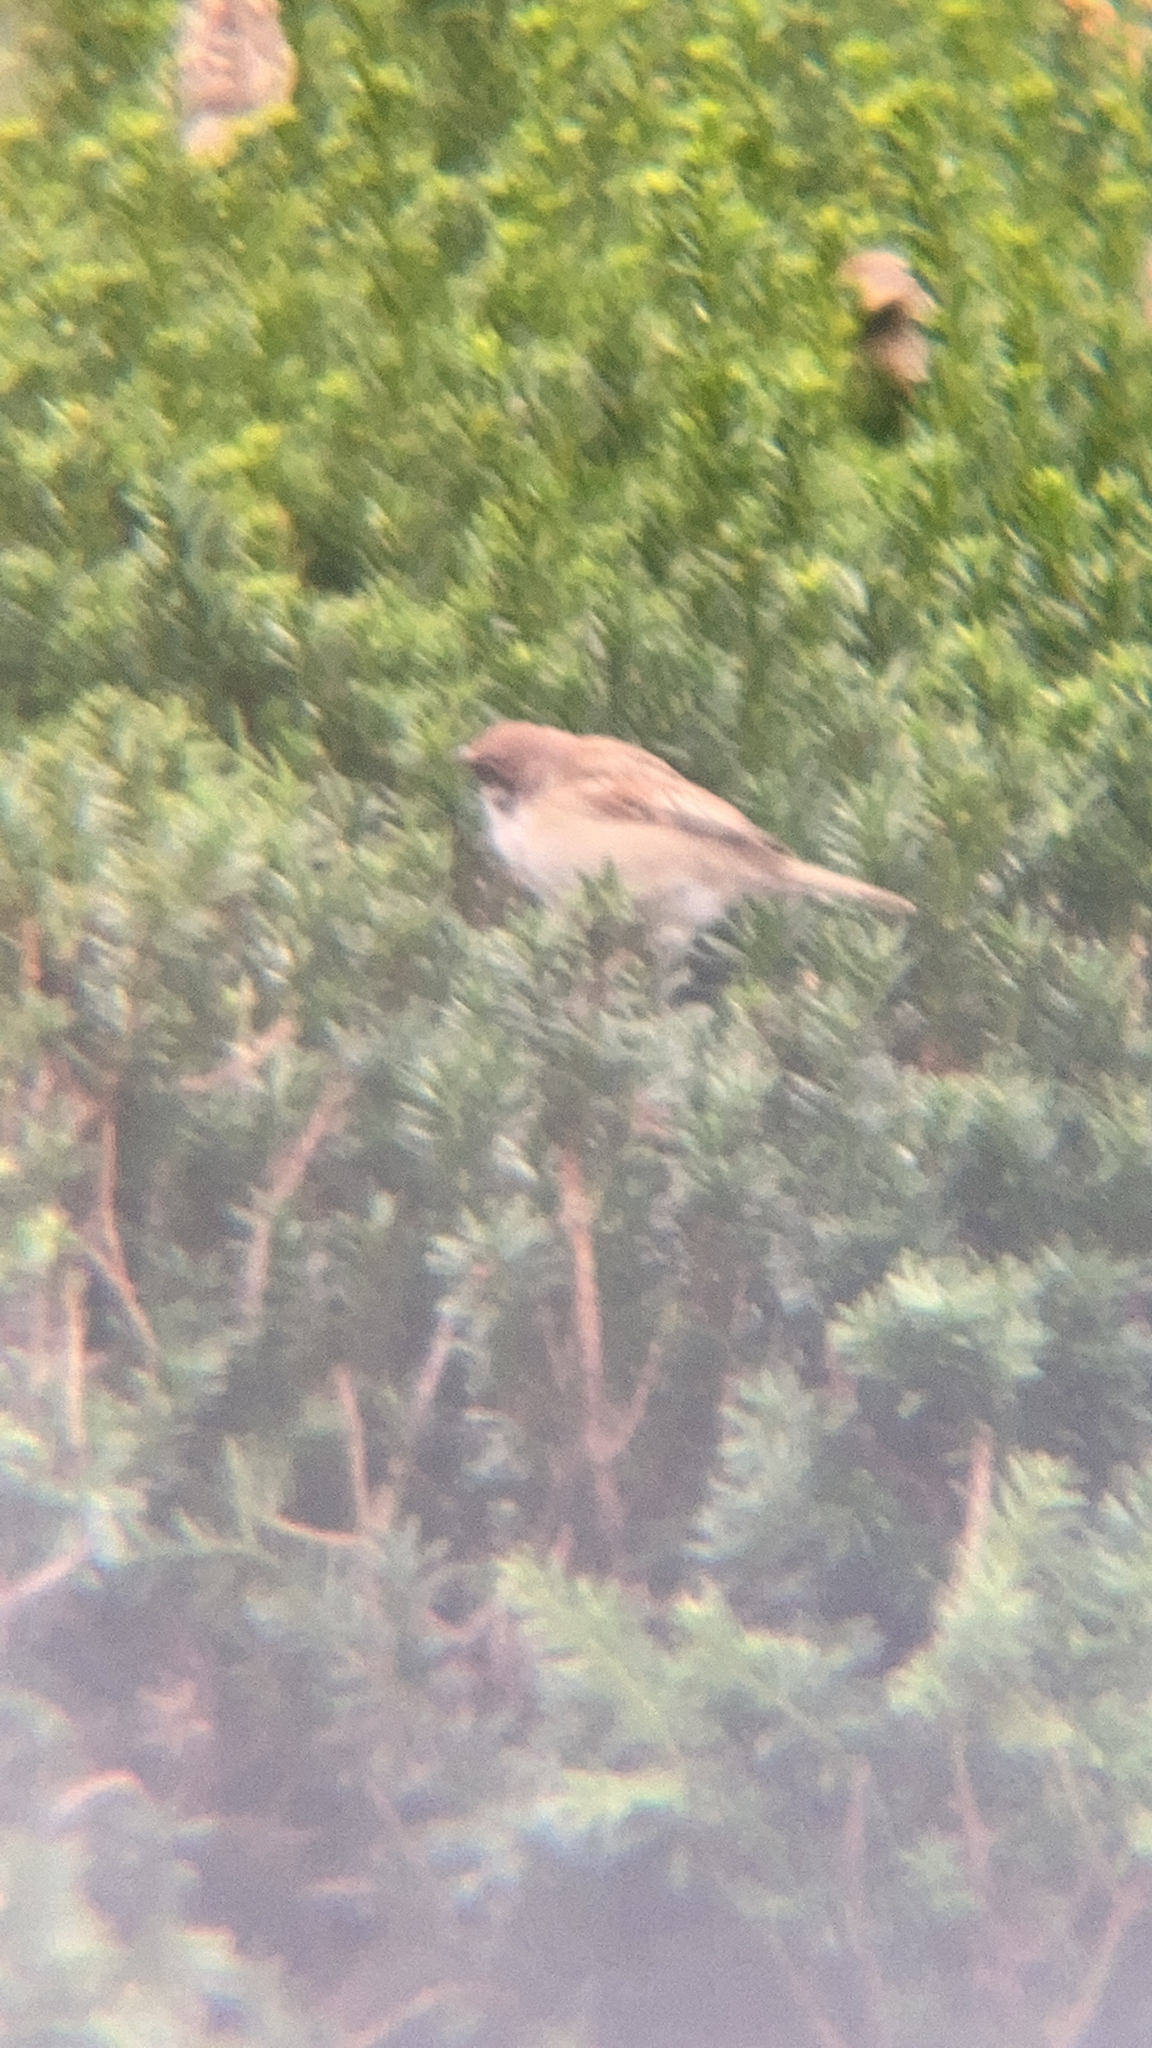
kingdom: Animalia
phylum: Chordata
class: Aves
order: Passeriformes
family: Passeridae
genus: Passer
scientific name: Passer montanus
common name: Eurasian tree sparrow
